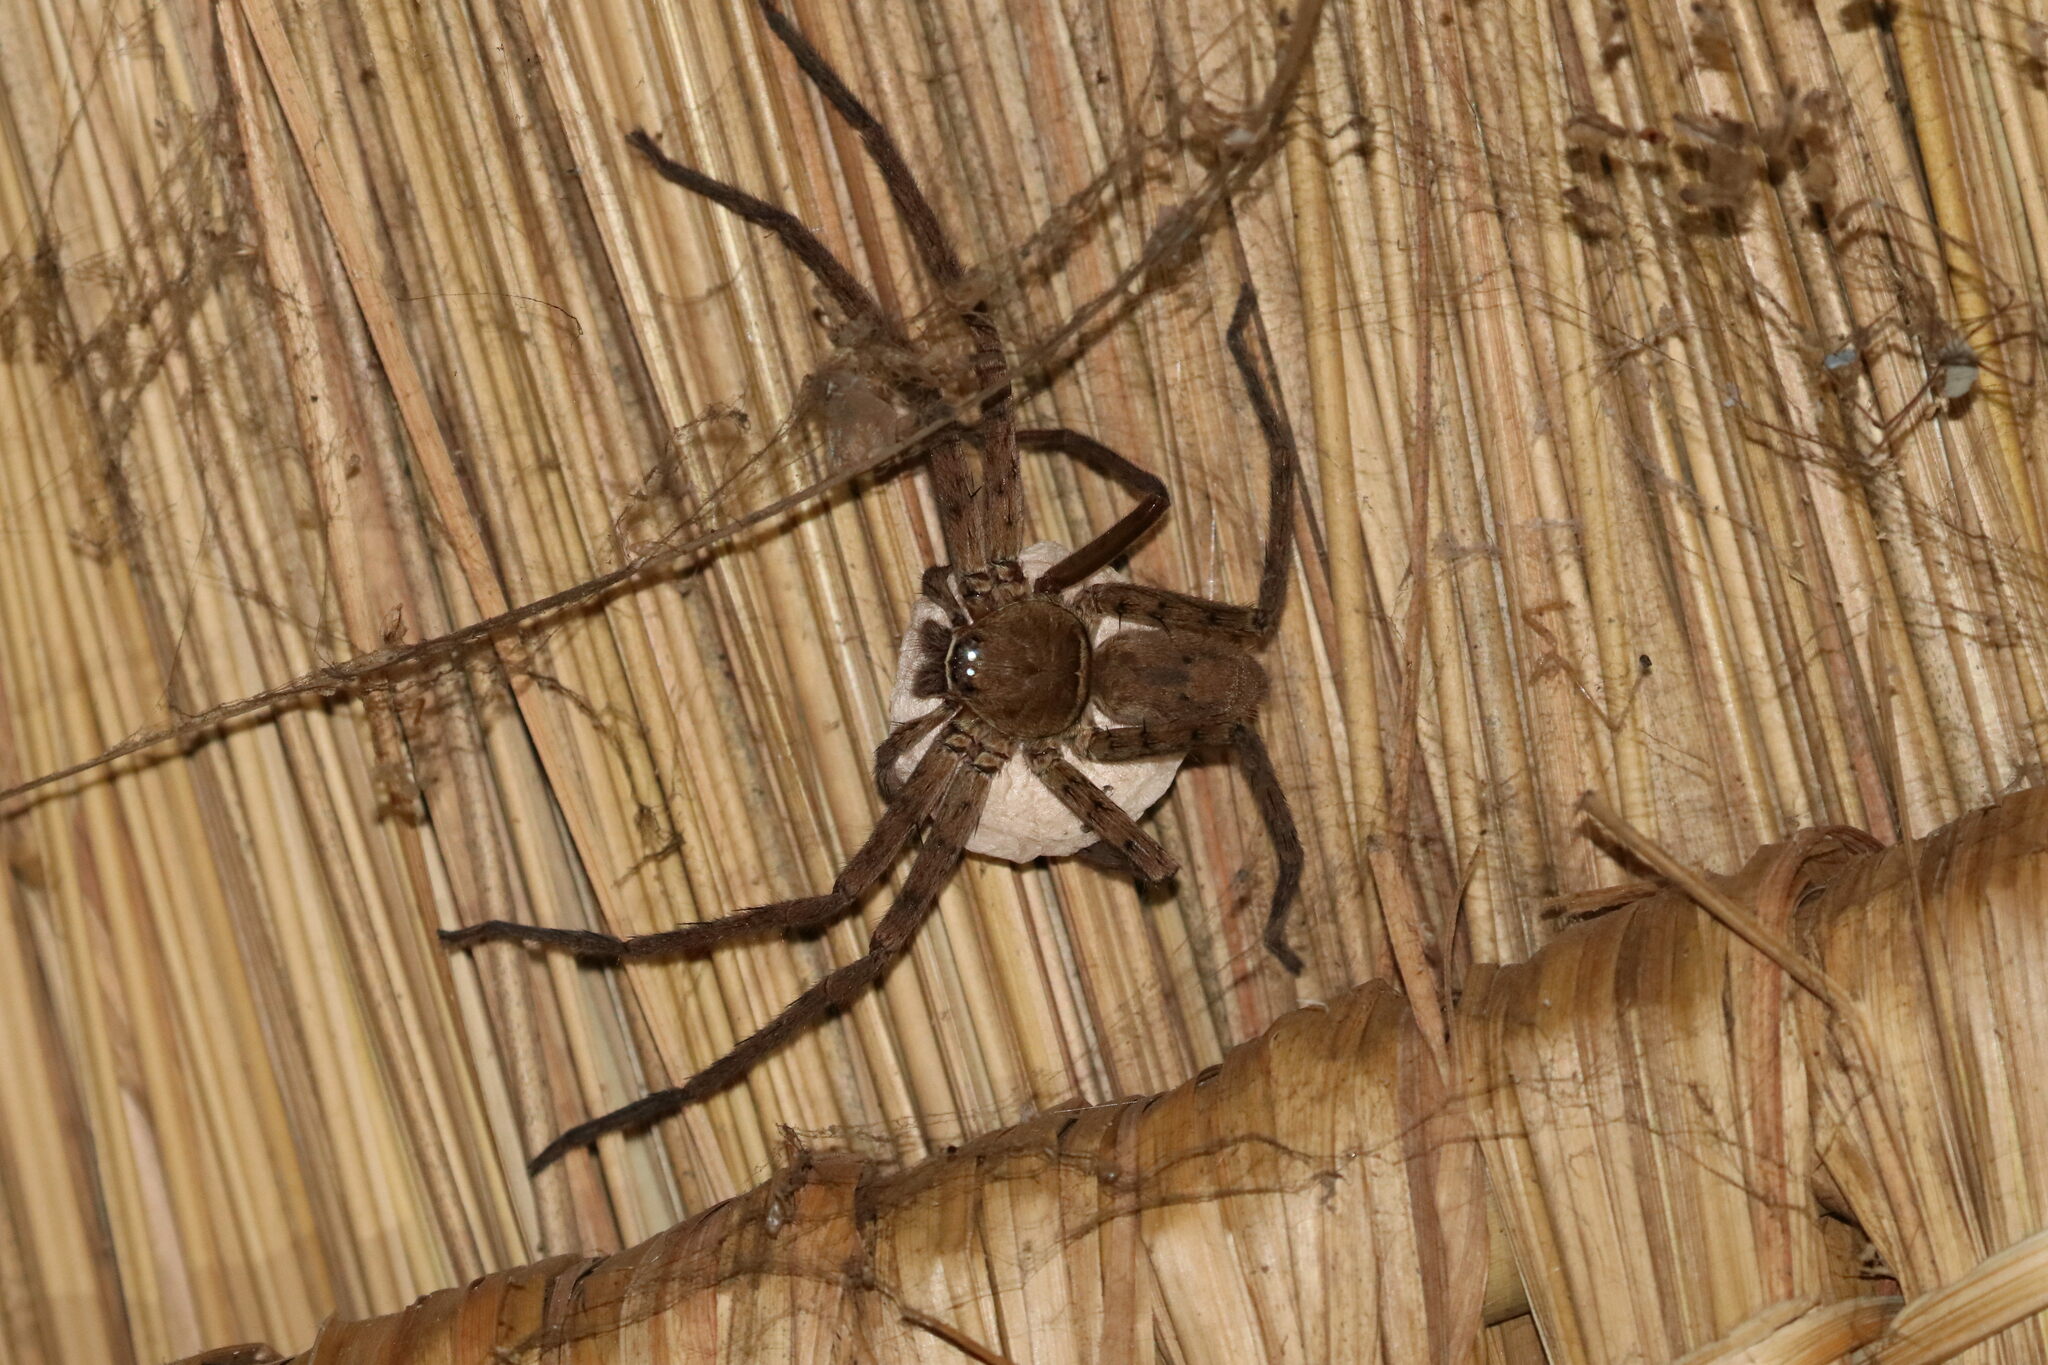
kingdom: Animalia
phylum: Arthropoda
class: Arachnida
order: Araneae
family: Sparassidae
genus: Heteropoda
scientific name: Heteropoda venatoria
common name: Huntsman spider
